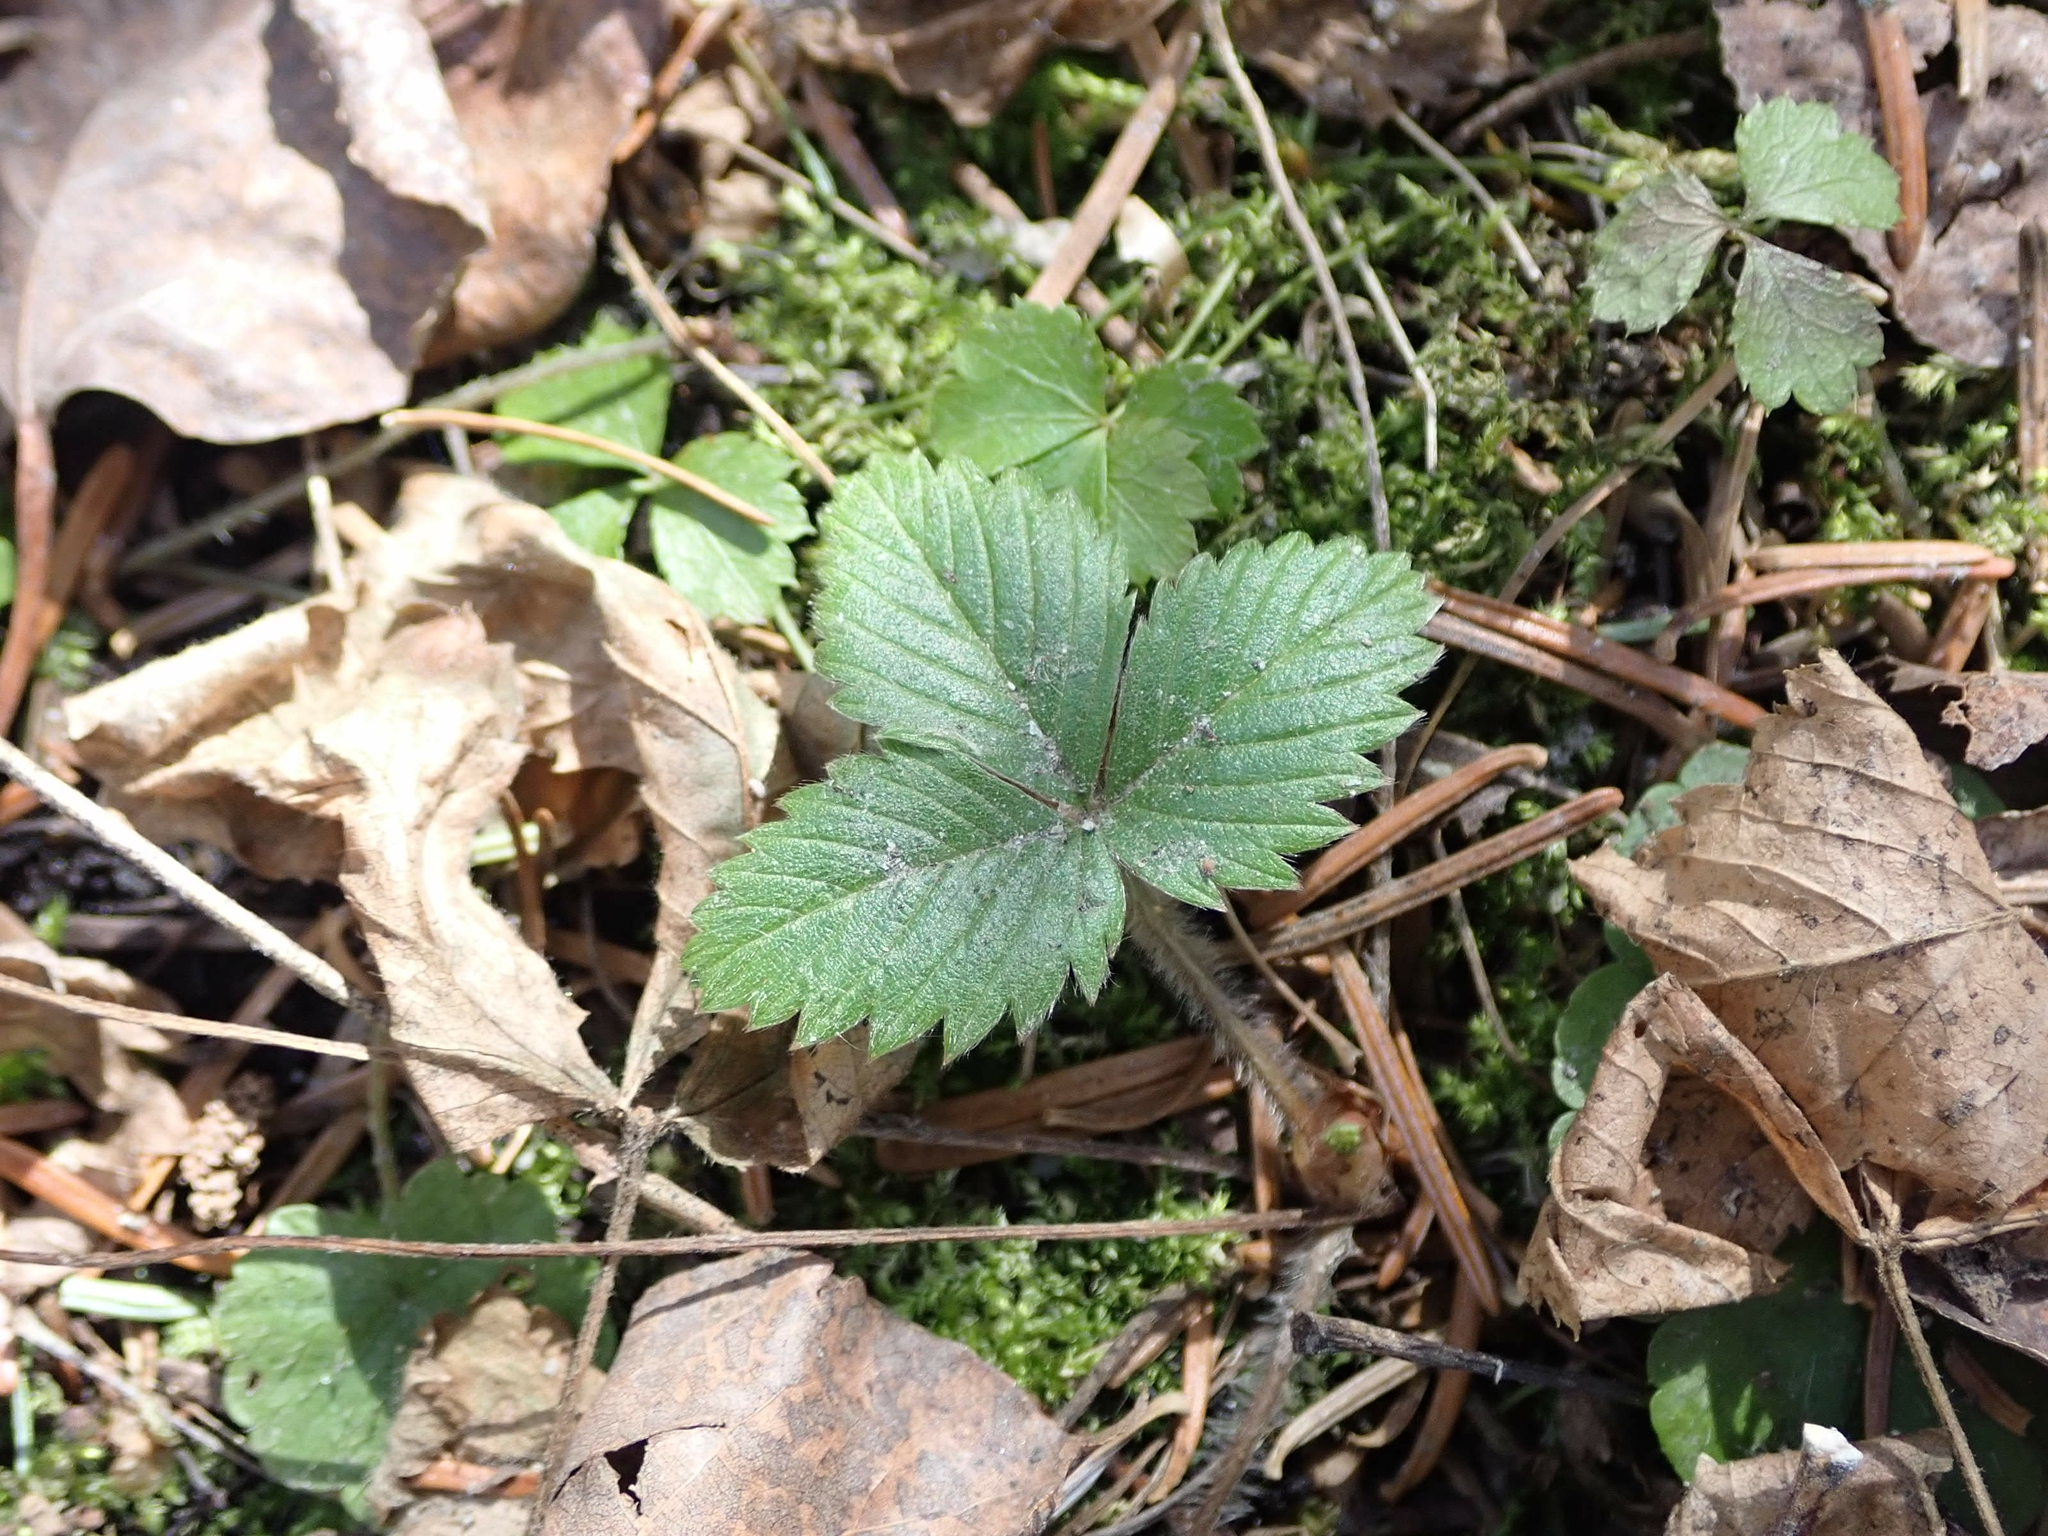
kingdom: Plantae
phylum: Tracheophyta
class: Magnoliopsida
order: Rosales
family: Rosaceae
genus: Fragaria
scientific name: Fragaria virginiana
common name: Thickleaved wild strawberry
